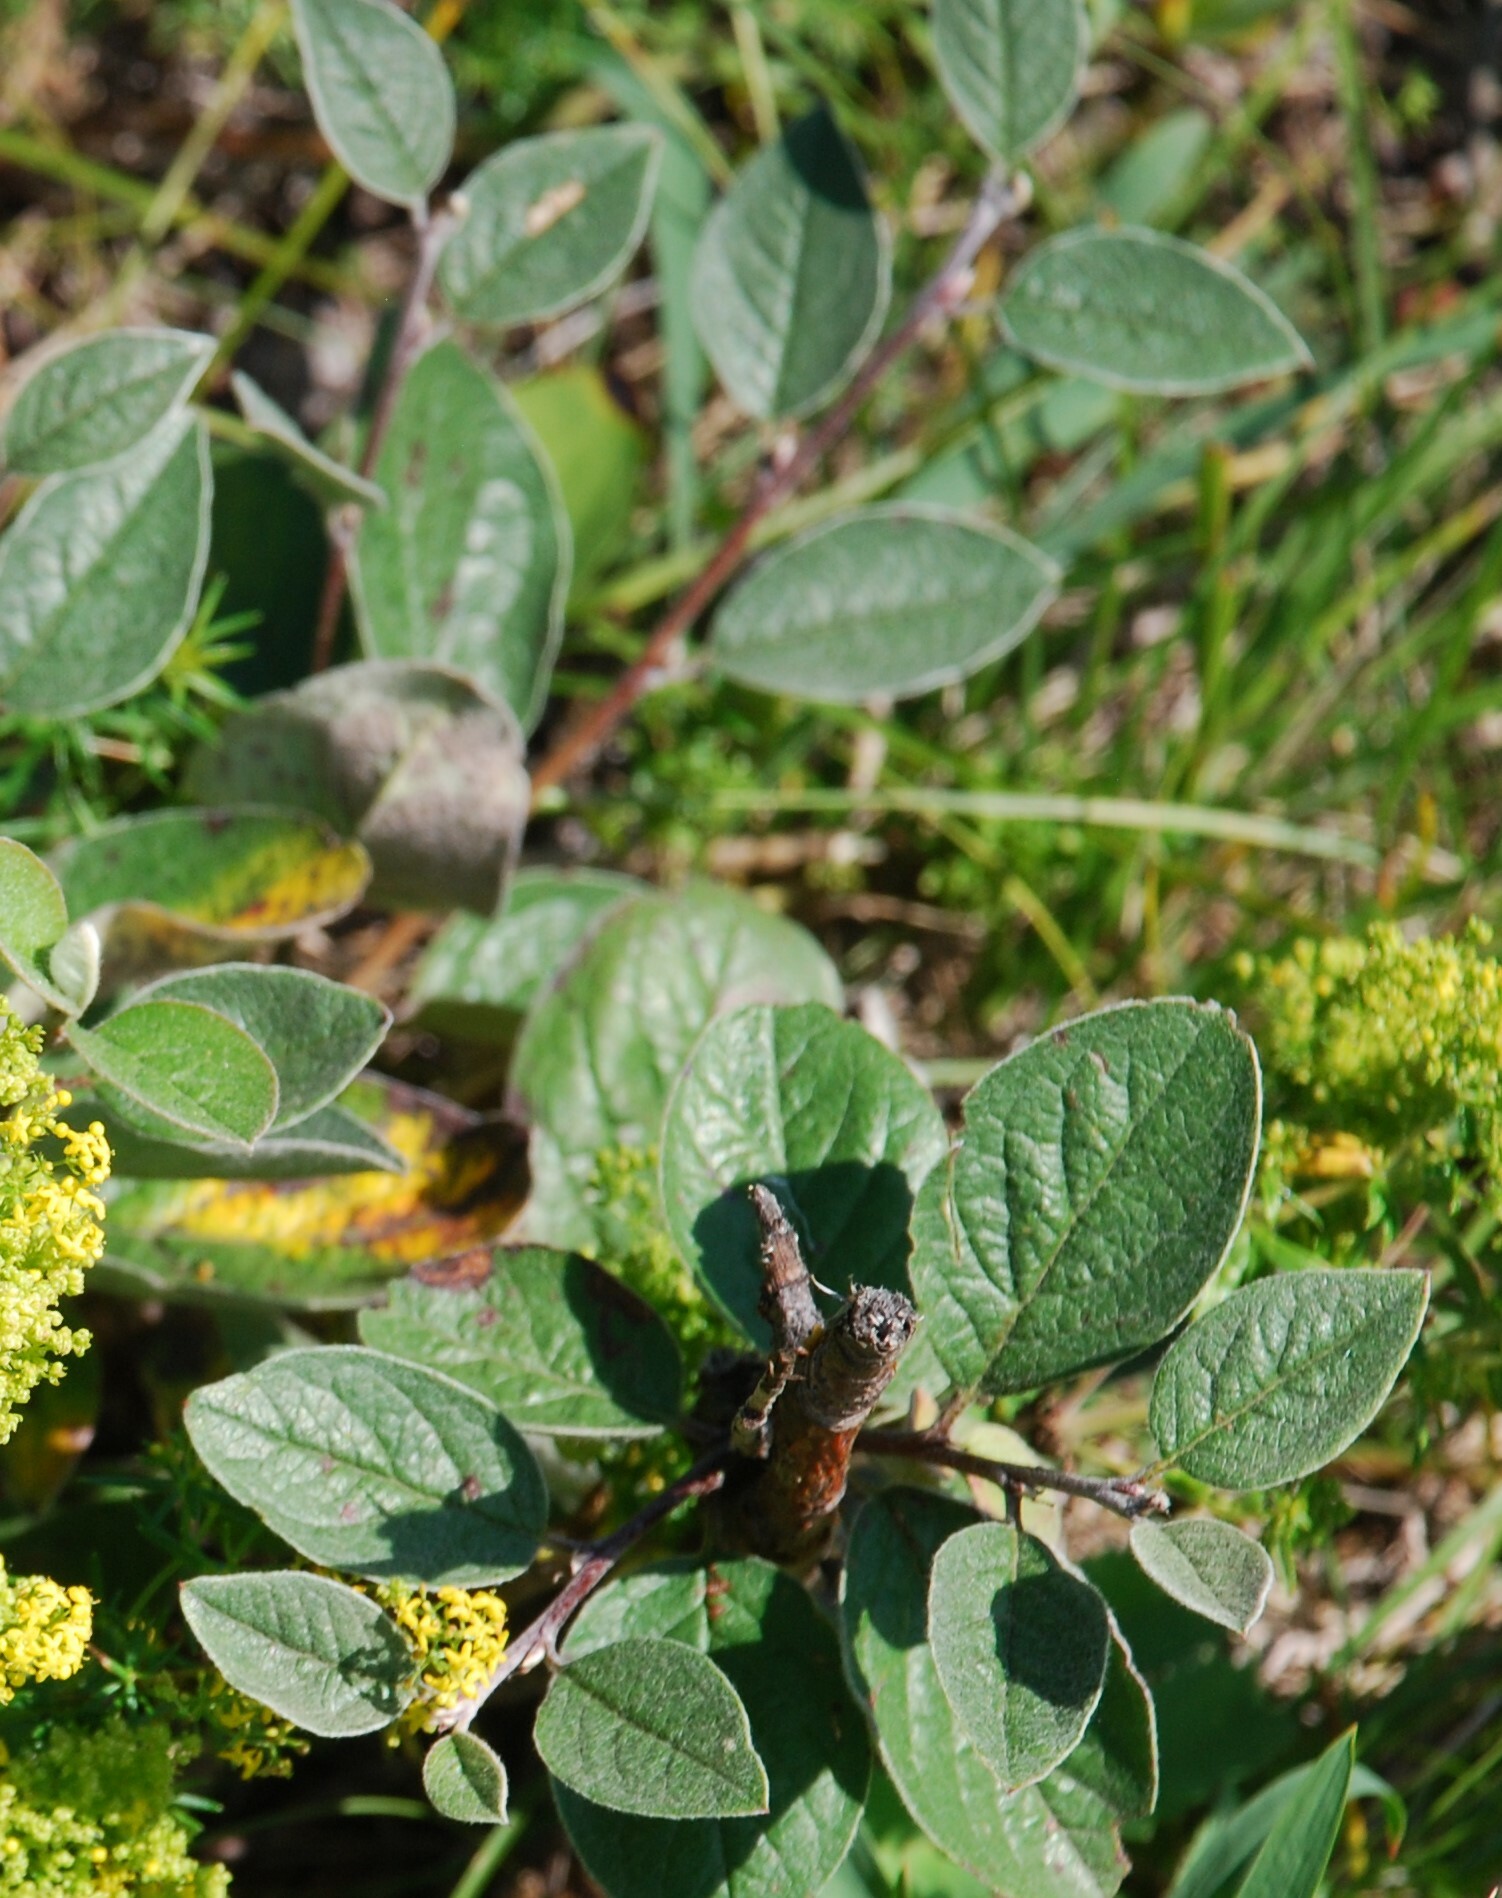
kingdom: Plantae
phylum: Tracheophyta
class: Magnoliopsida
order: Rosales
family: Rosaceae
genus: Cotoneaster
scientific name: Cotoneaster melanocarpus
